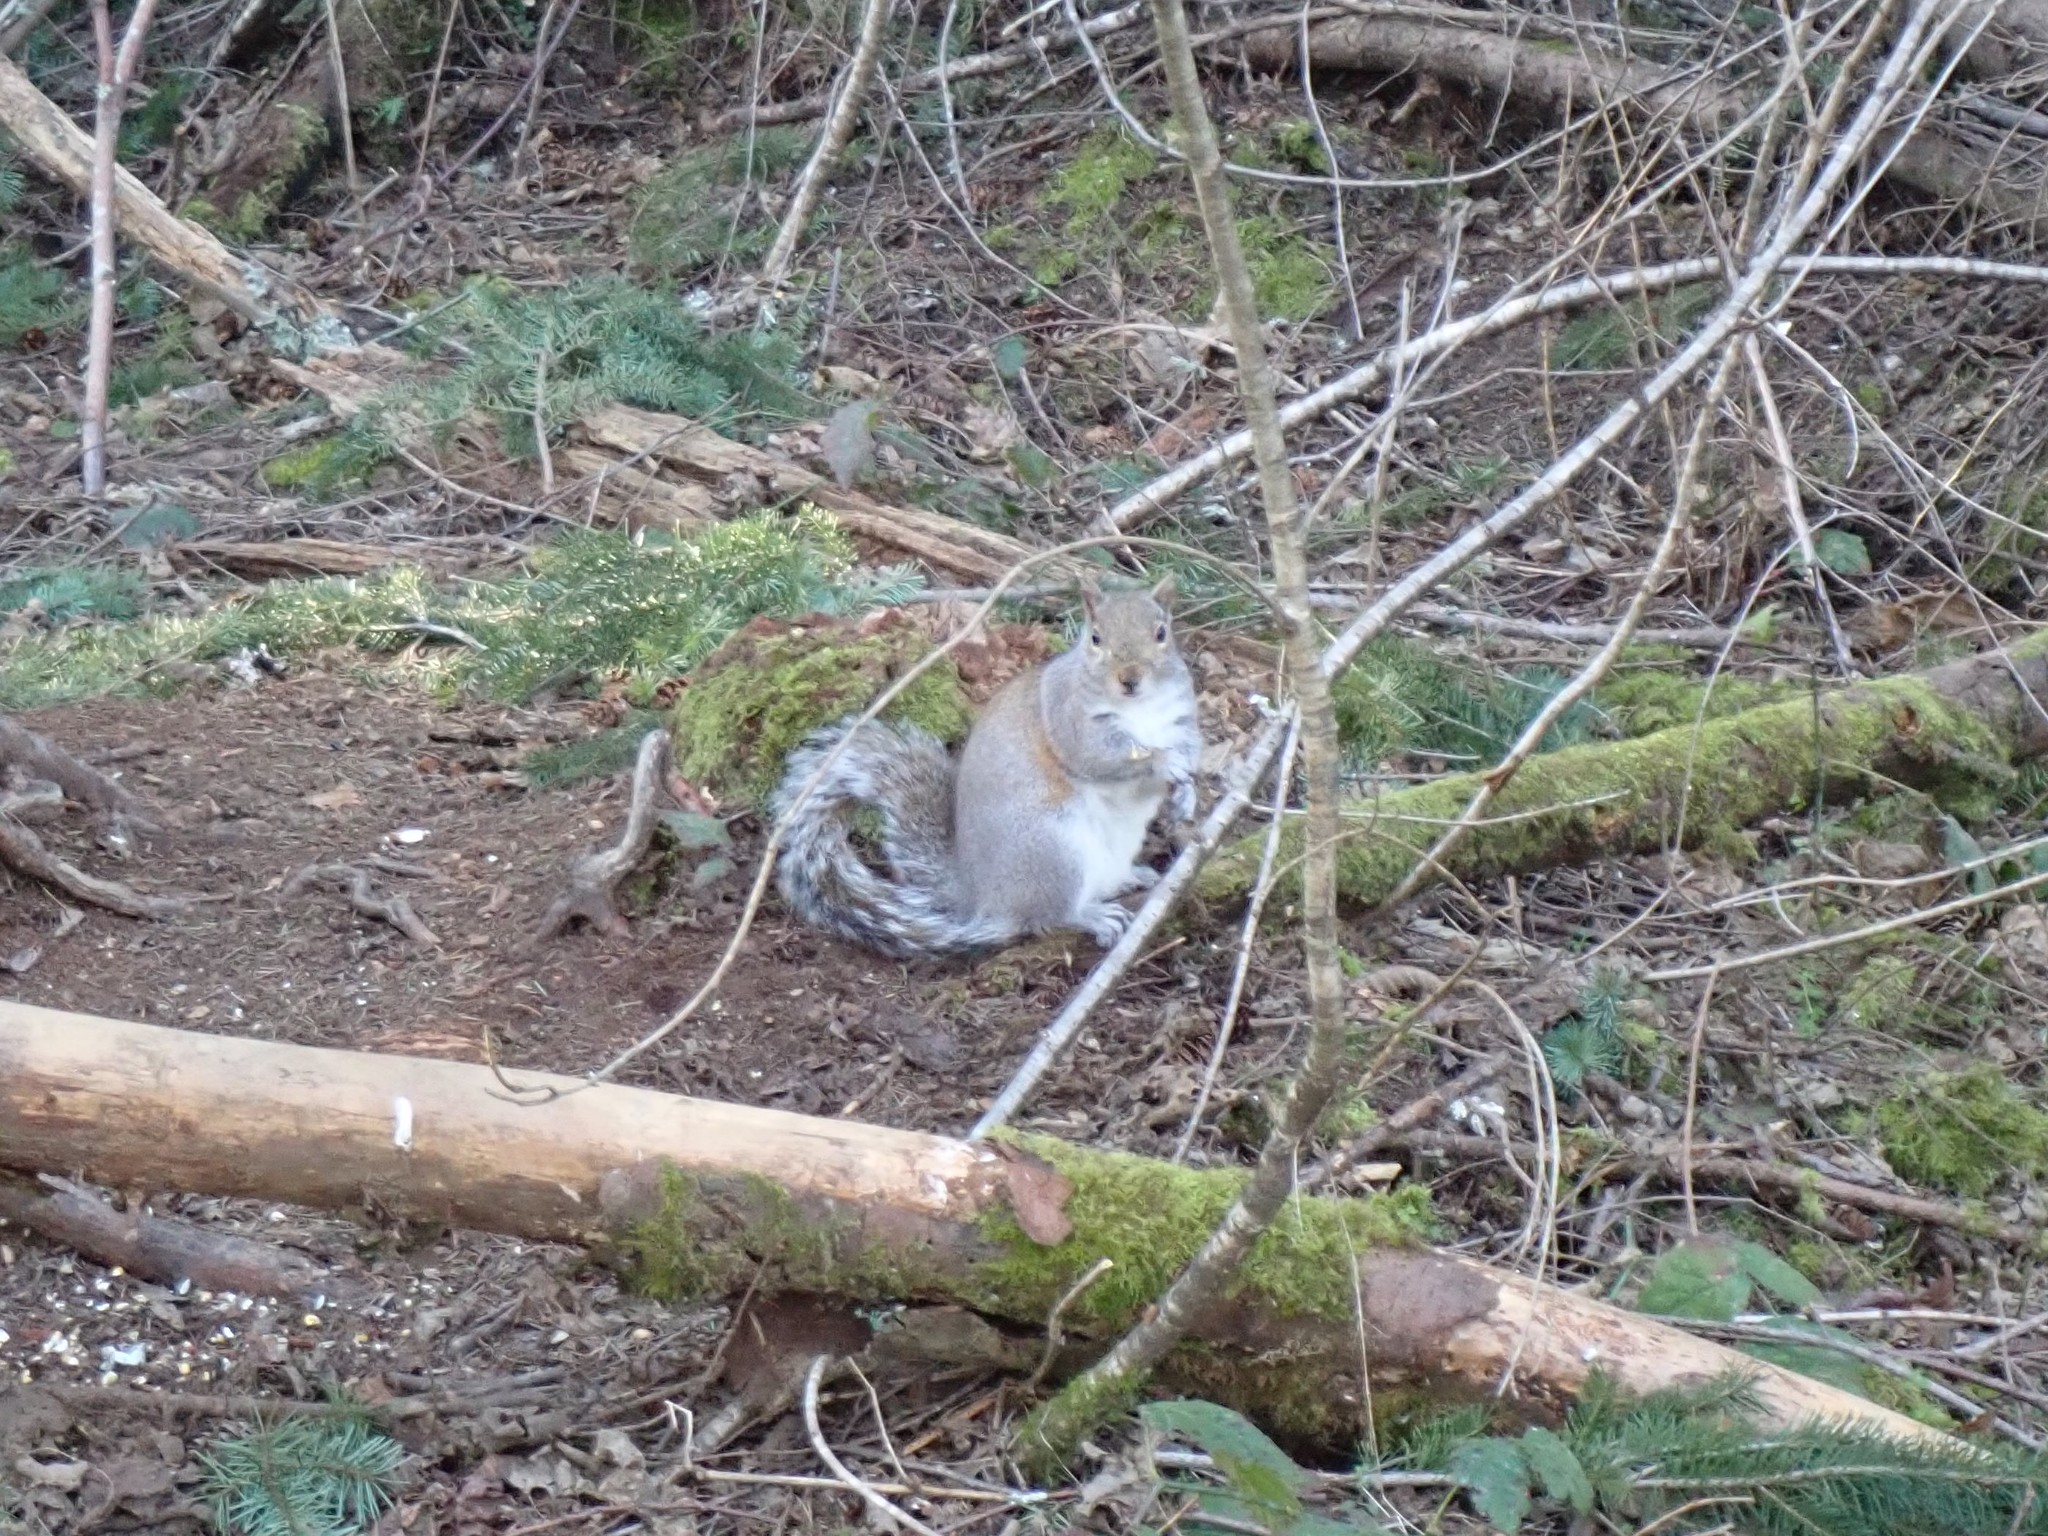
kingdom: Animalia
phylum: Chordata
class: Mammalia
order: Rodentia
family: Sciuridae
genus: Sciurus
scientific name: Sciurus carolinensis
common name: Eastern gray squirrel
